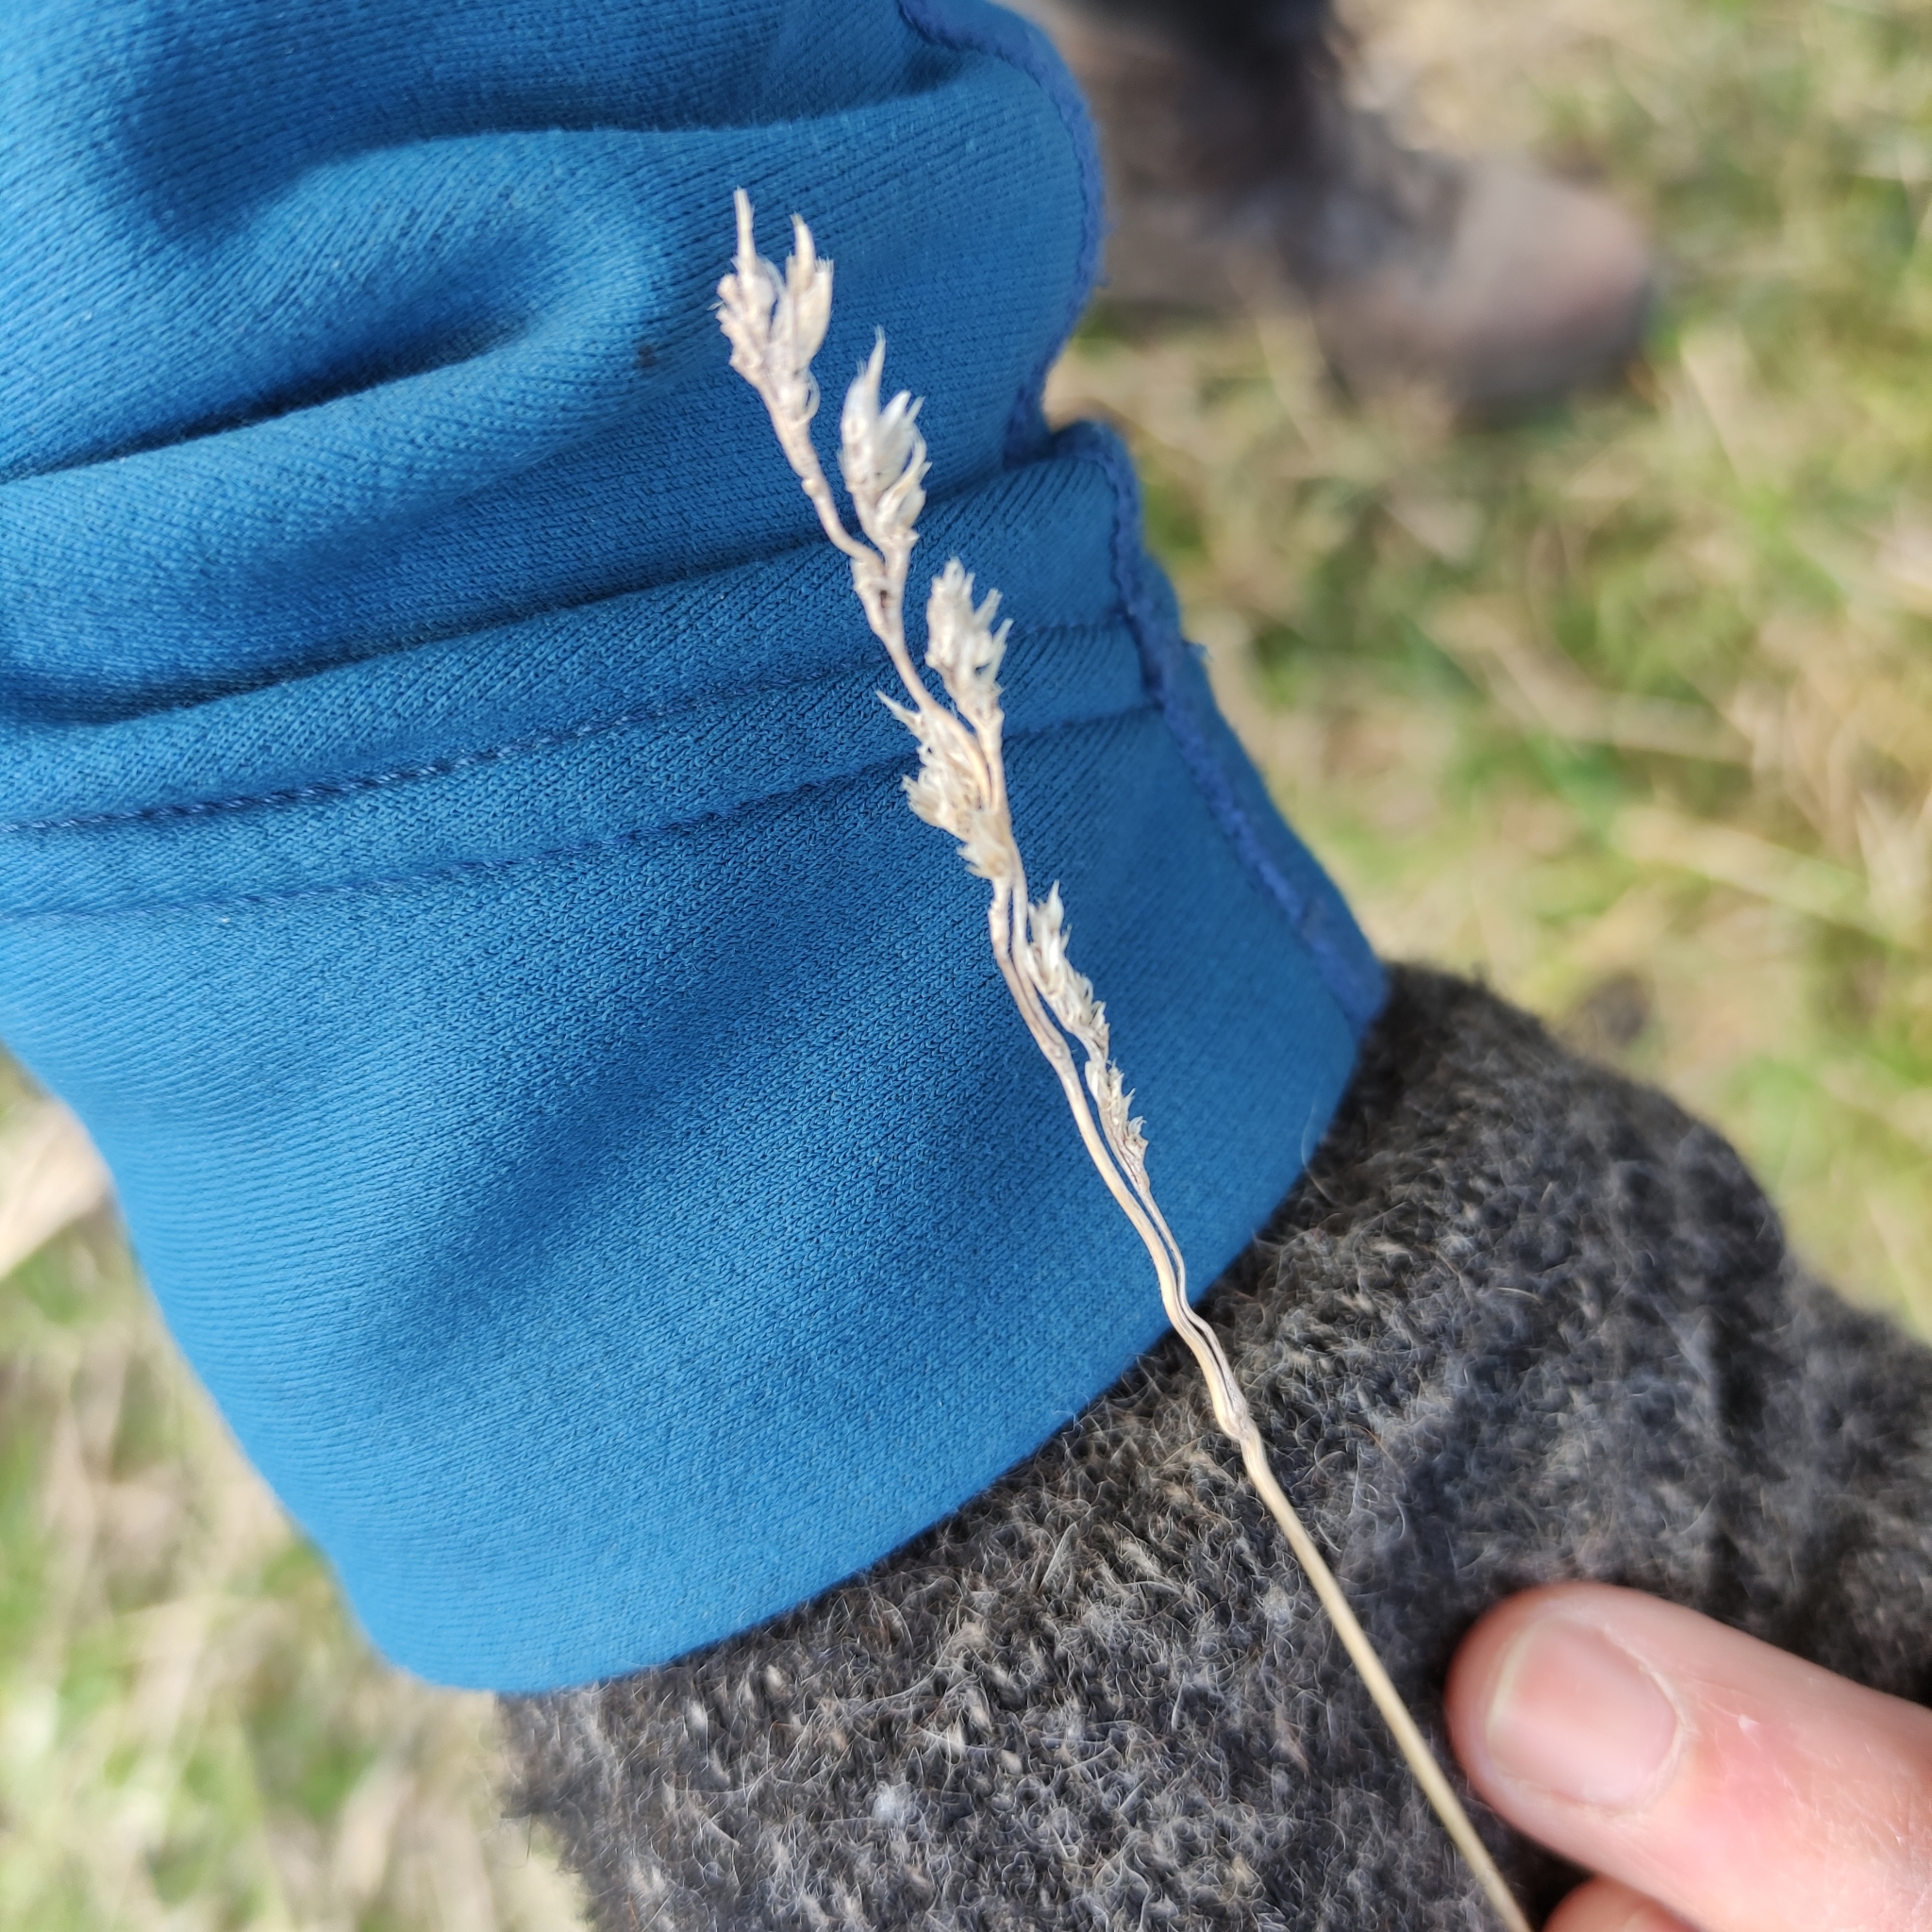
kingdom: Plantae
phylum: Tracheophyta
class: Liliopsida
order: Poales
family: Poaceae
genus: Dactylis
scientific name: Dactylis glomerata
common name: Orchardgrass
